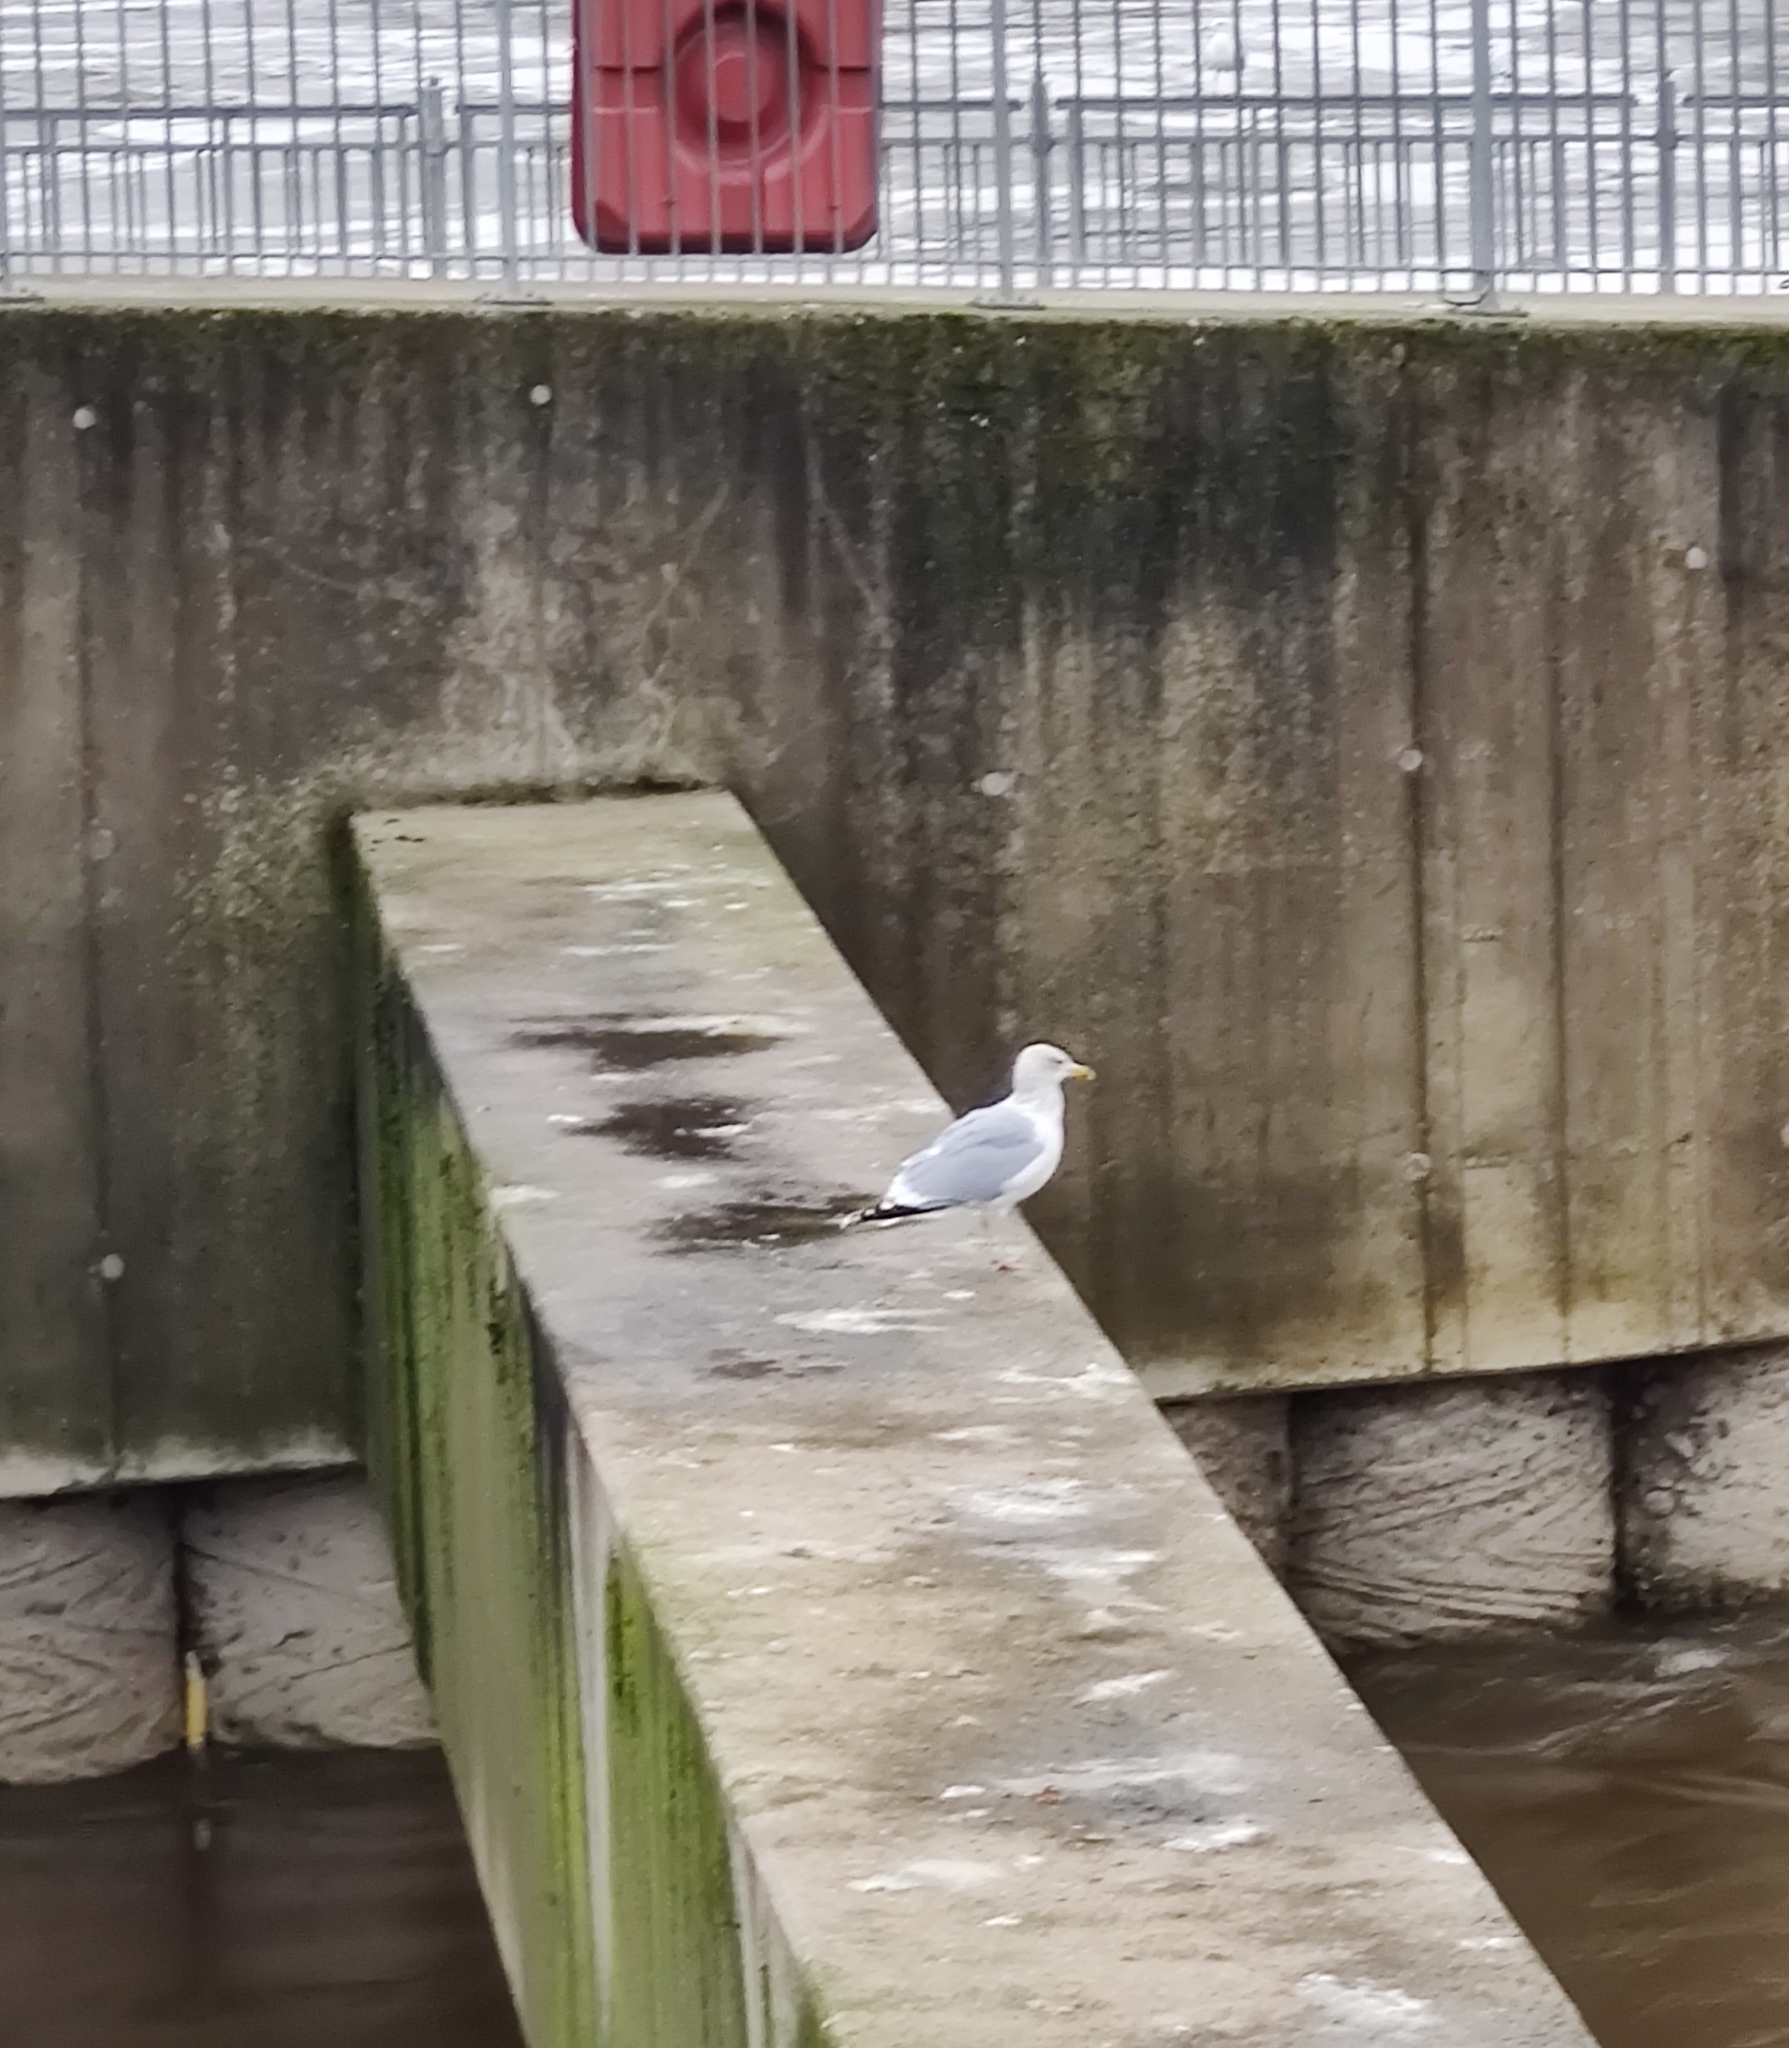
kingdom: Animalia
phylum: Chordata
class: Aves
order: Charadriiformes
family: Laridae
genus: Larus
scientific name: Larus argentatus
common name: Herring gull
